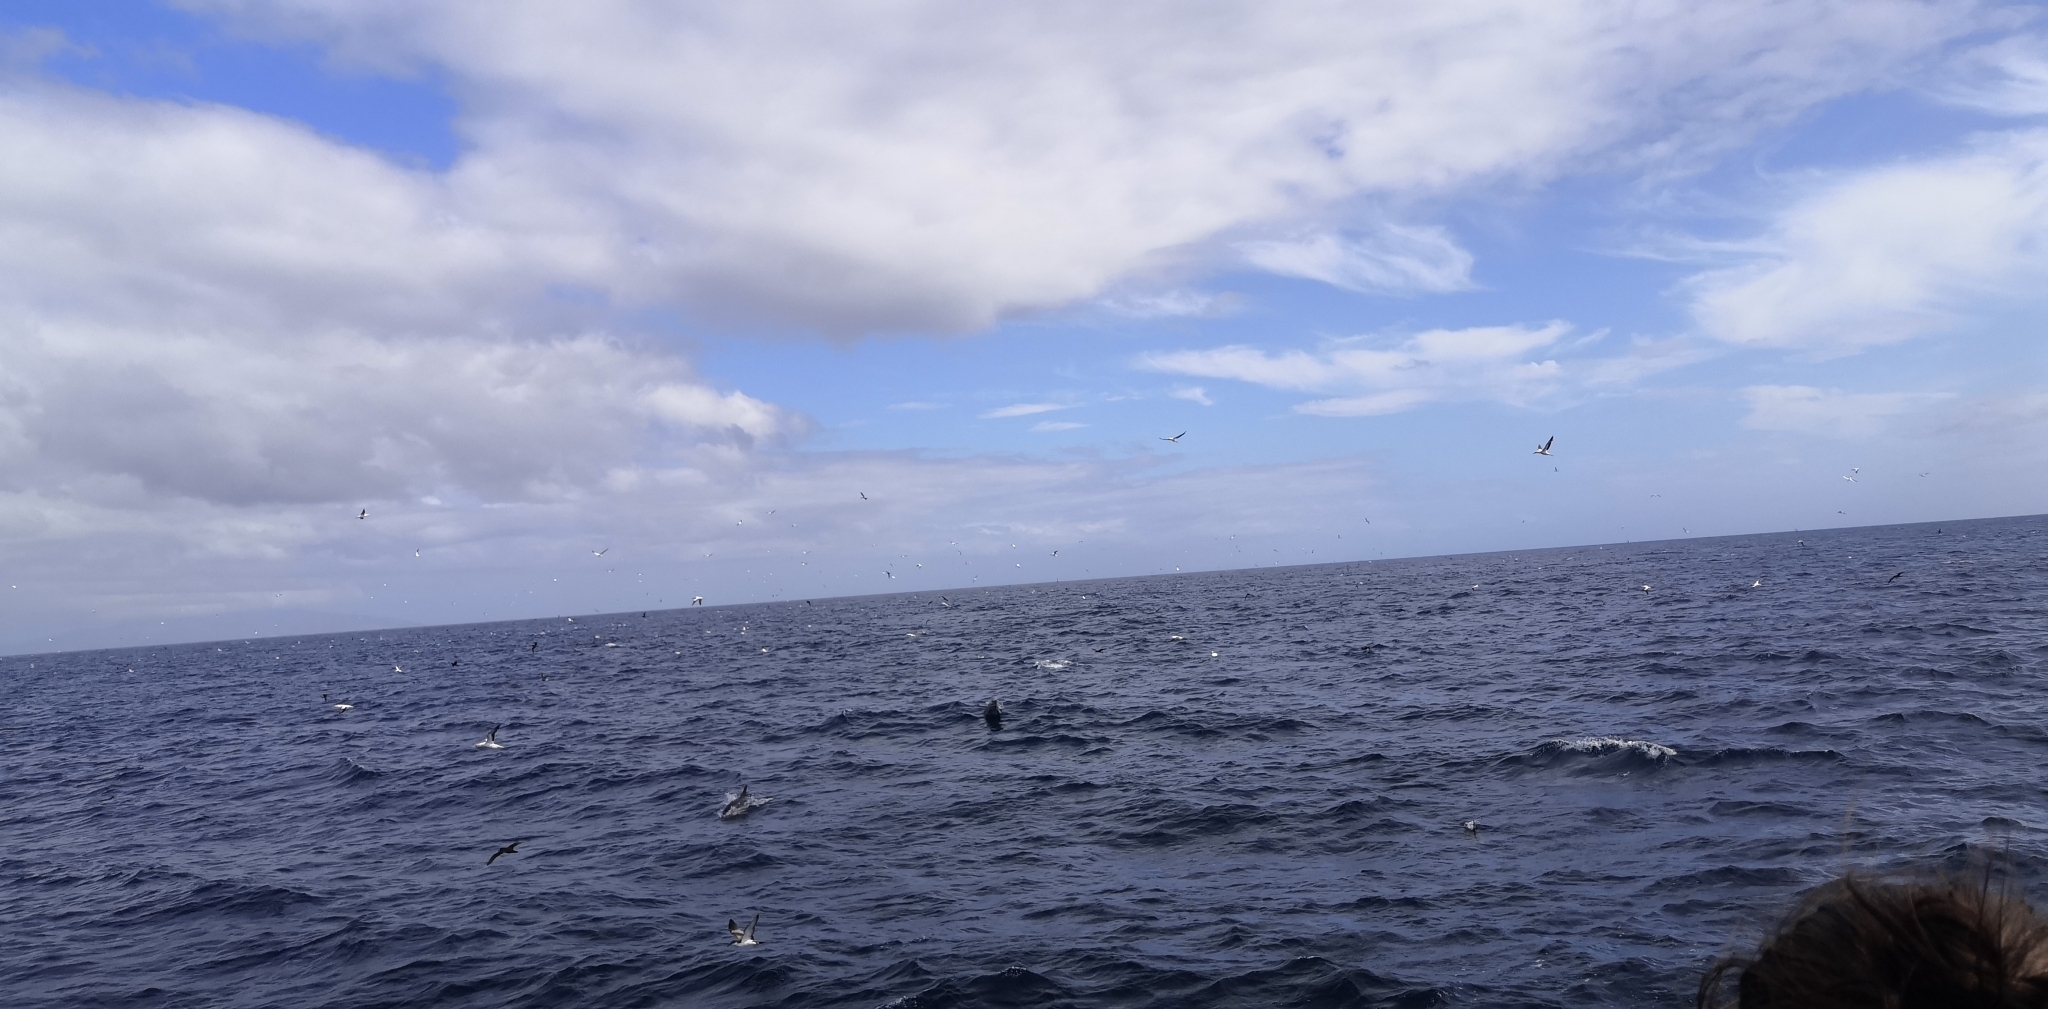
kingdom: Animalia
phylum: Chordata
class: Mammalia
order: Cetacea
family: Delphinidae
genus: Delphinus
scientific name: Delphinus delphis
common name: Common dolphin
